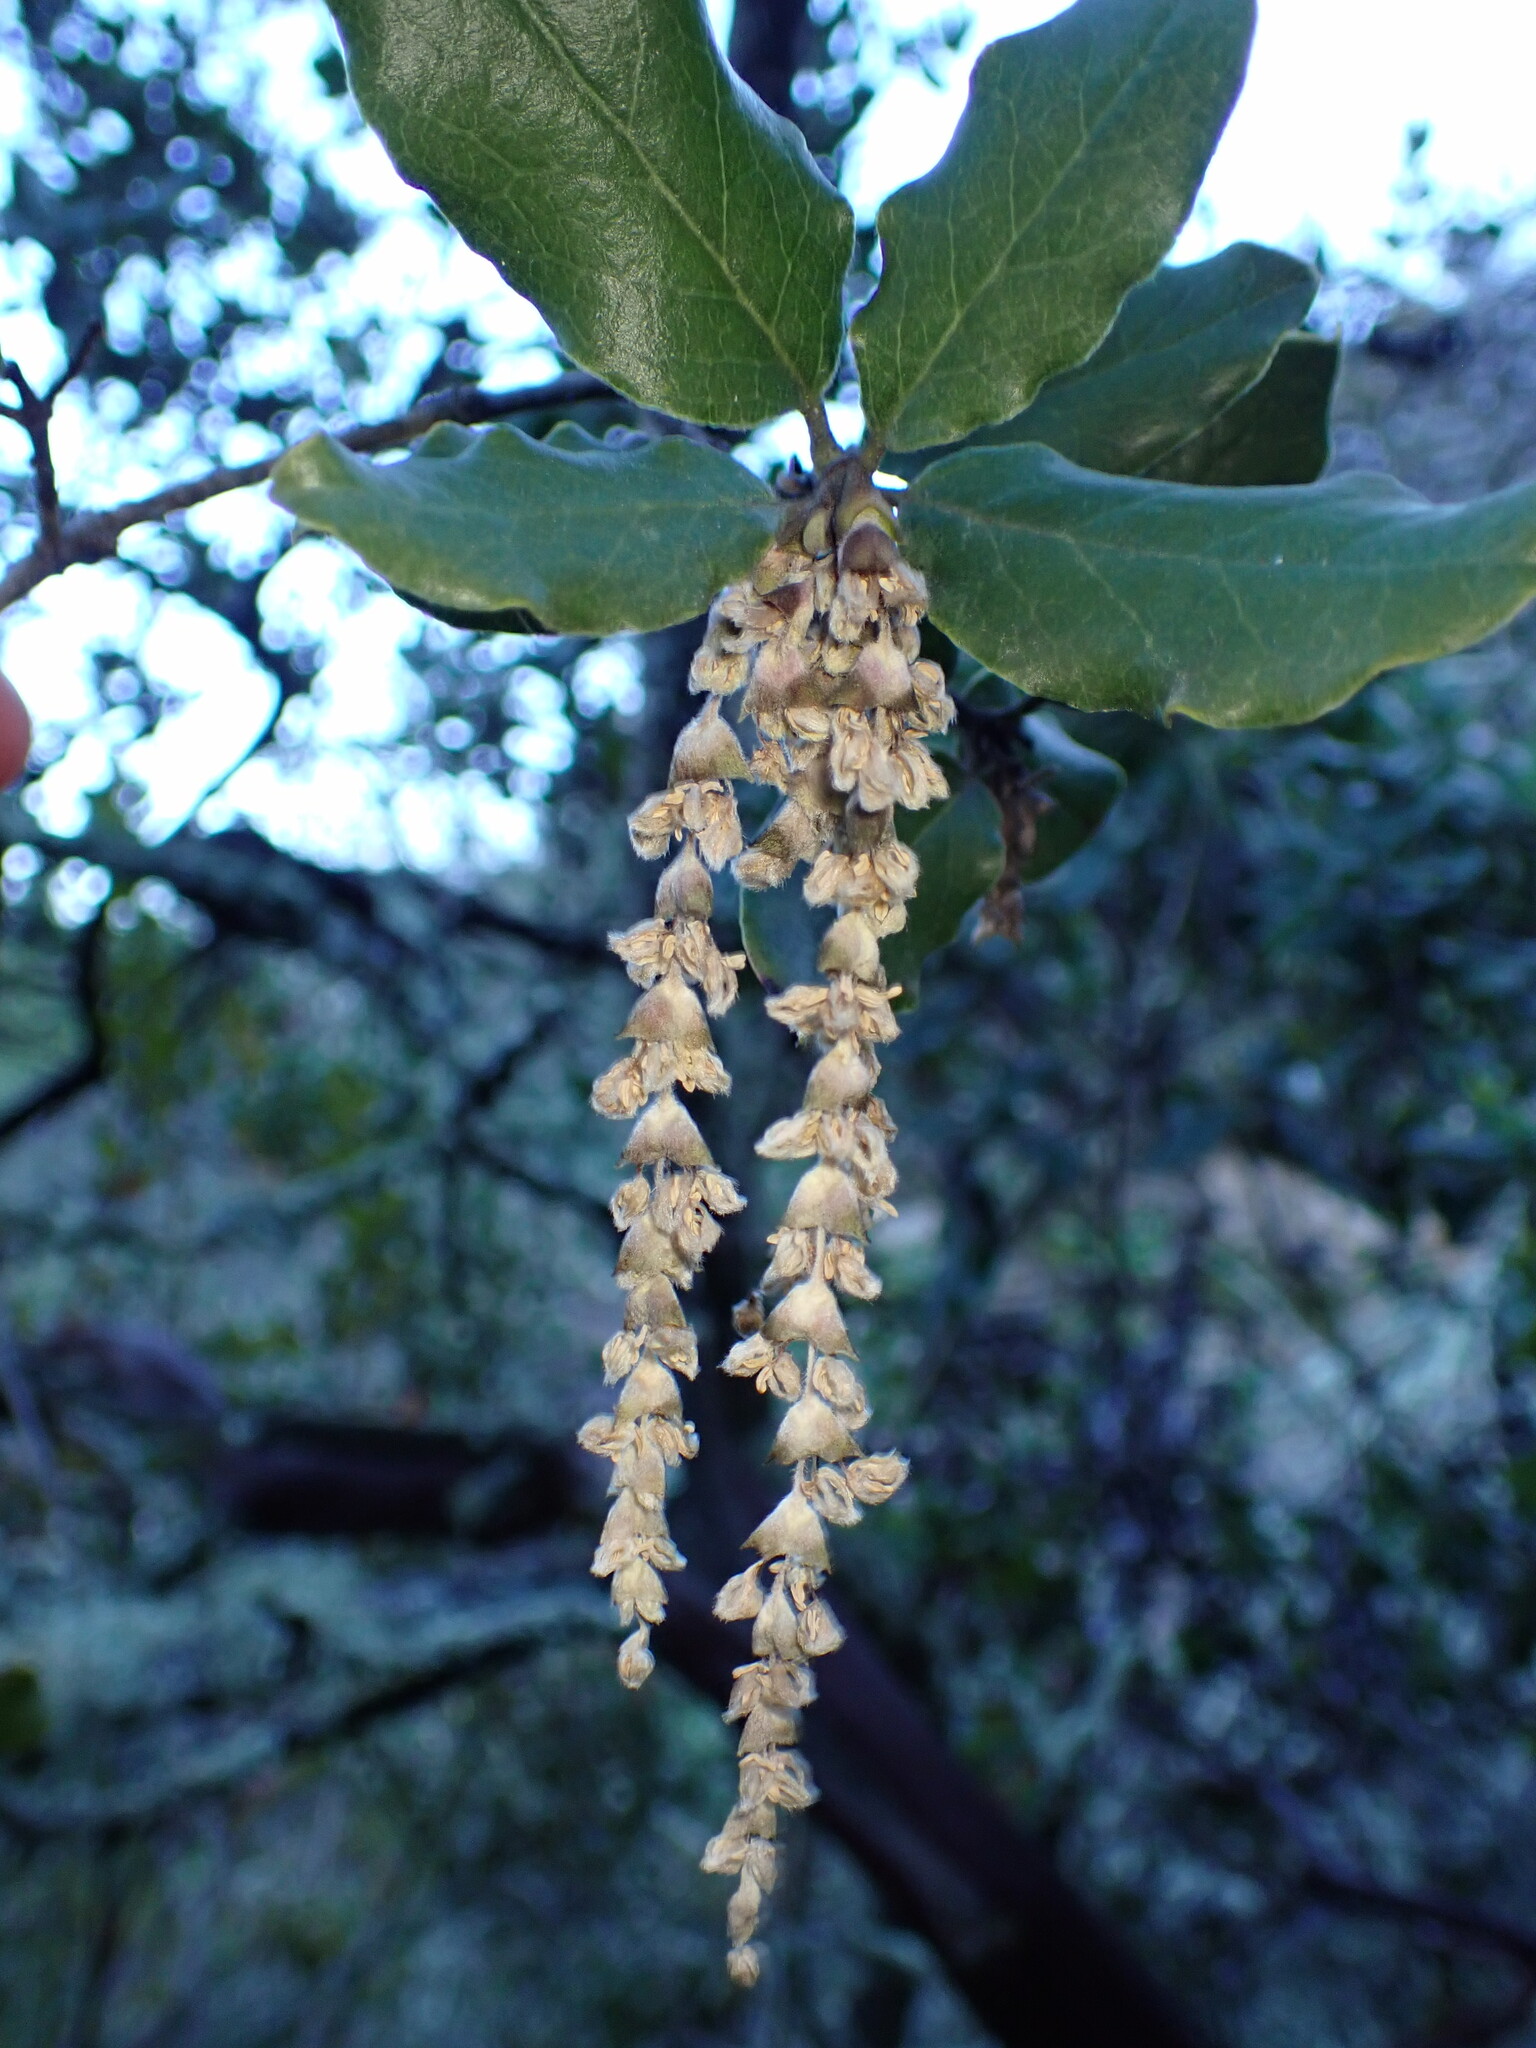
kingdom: Plantae
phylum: Tracheophyta
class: Magnoliopsida
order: Garryales
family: Garryaceae
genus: Garrya
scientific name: Garrya elliptica
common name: Silk-tassel
